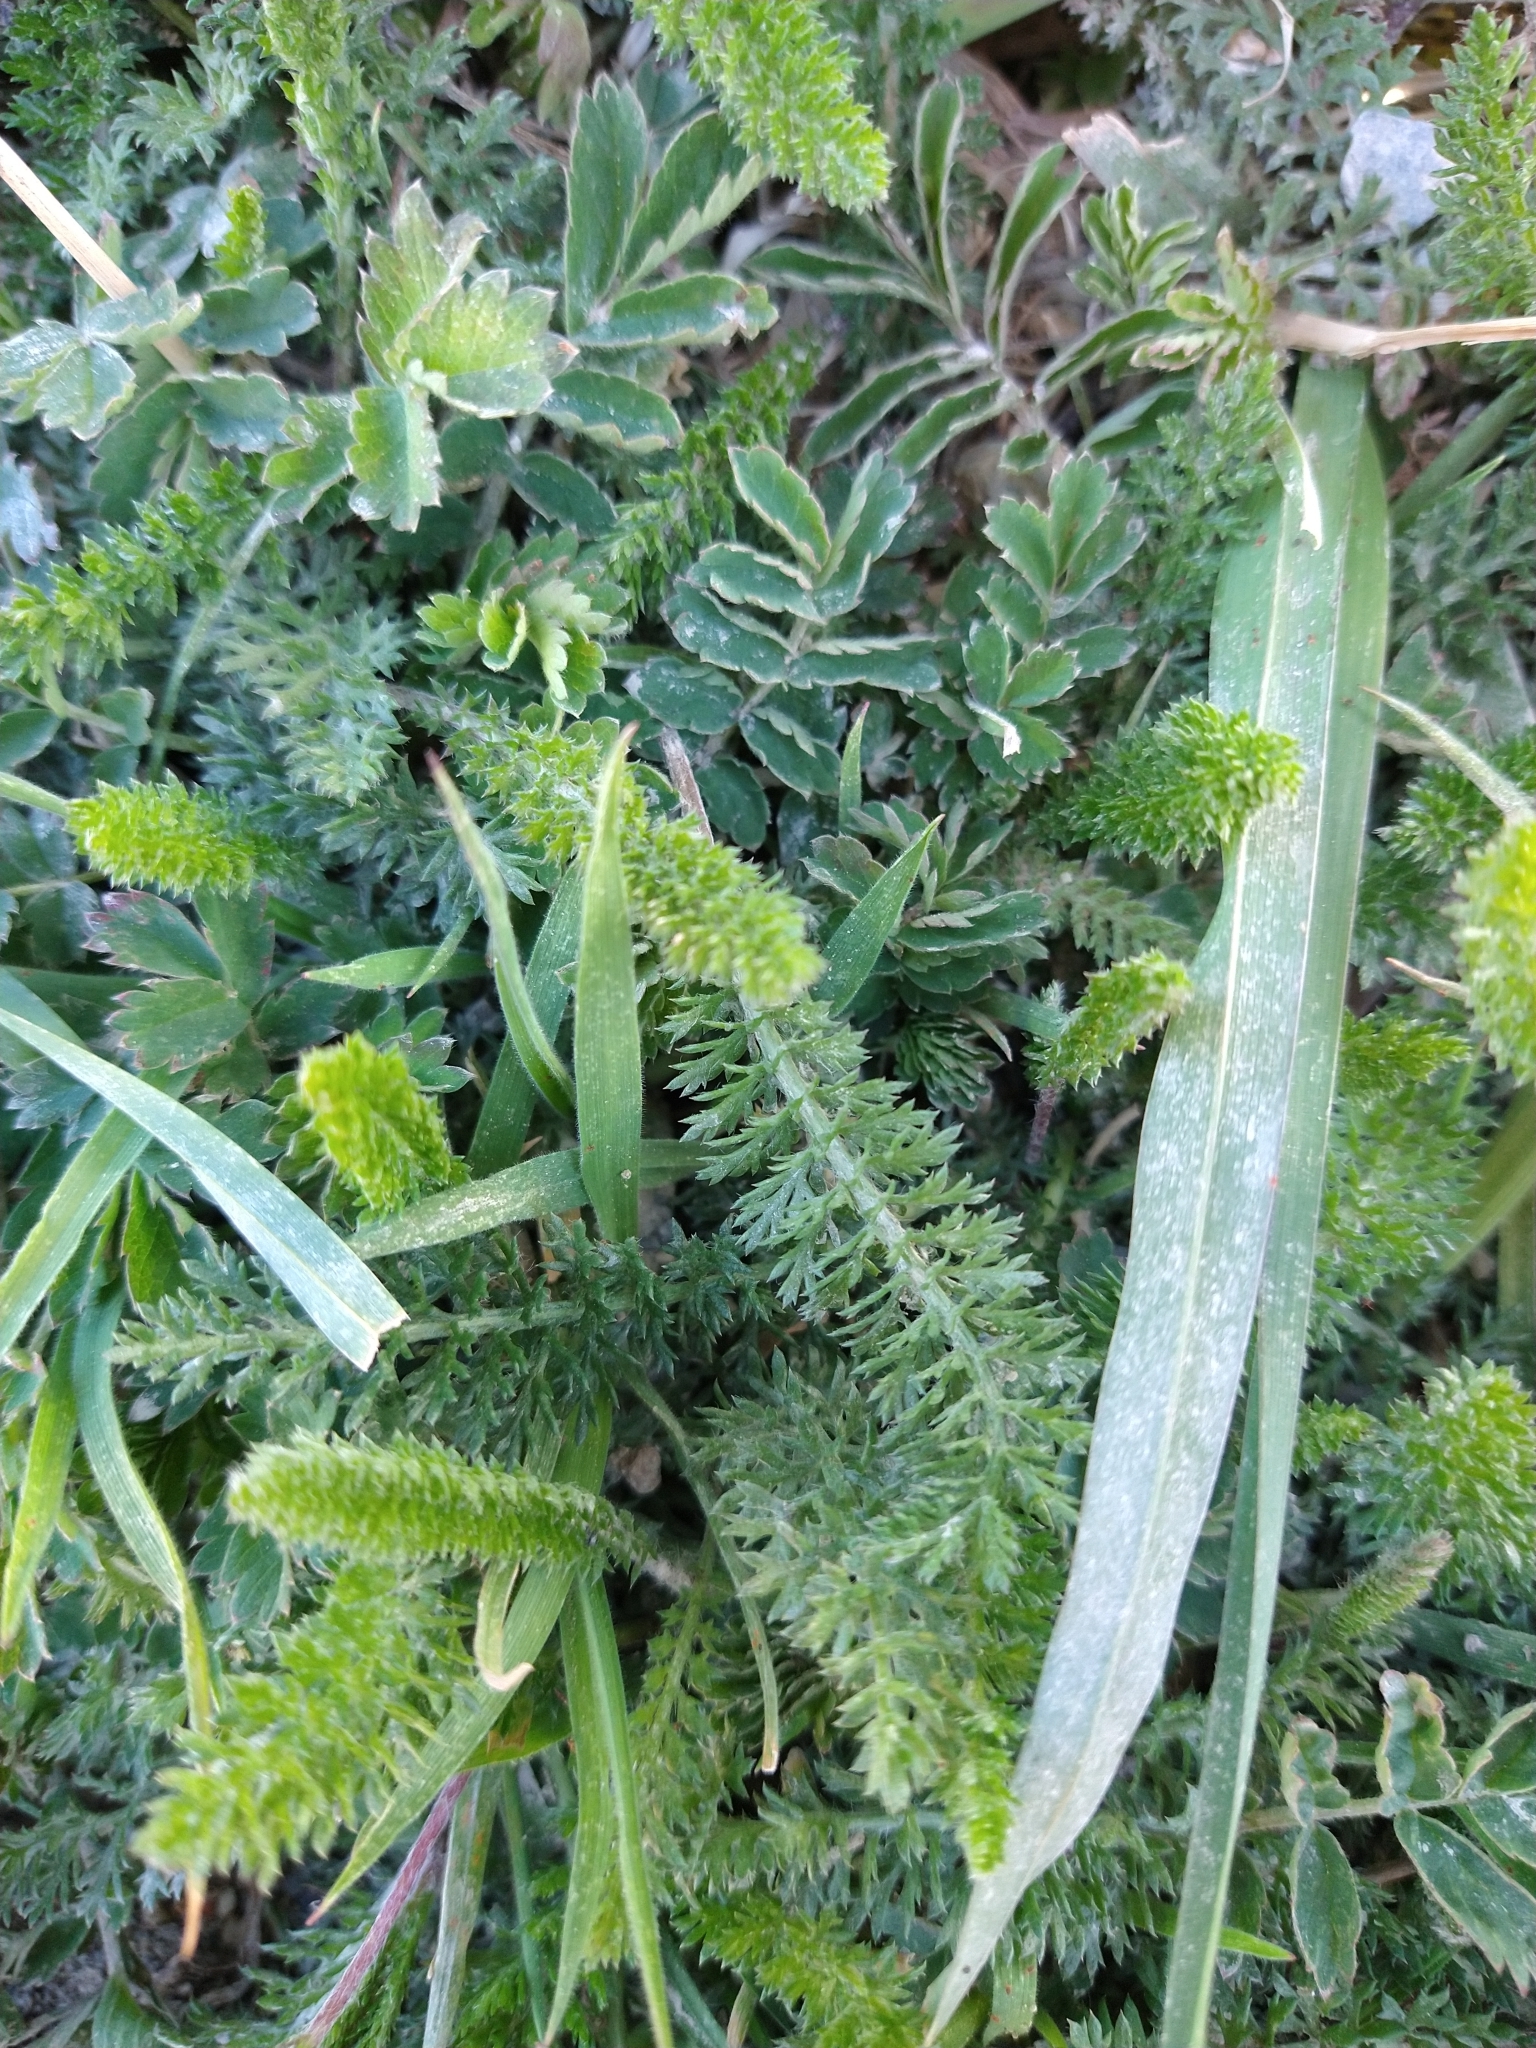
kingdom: Plantae
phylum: Tracheophyta
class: Magnoliopsida
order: Asterales
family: Asteraceae
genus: Achillea
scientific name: Achillea millefolium
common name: Yarrow
